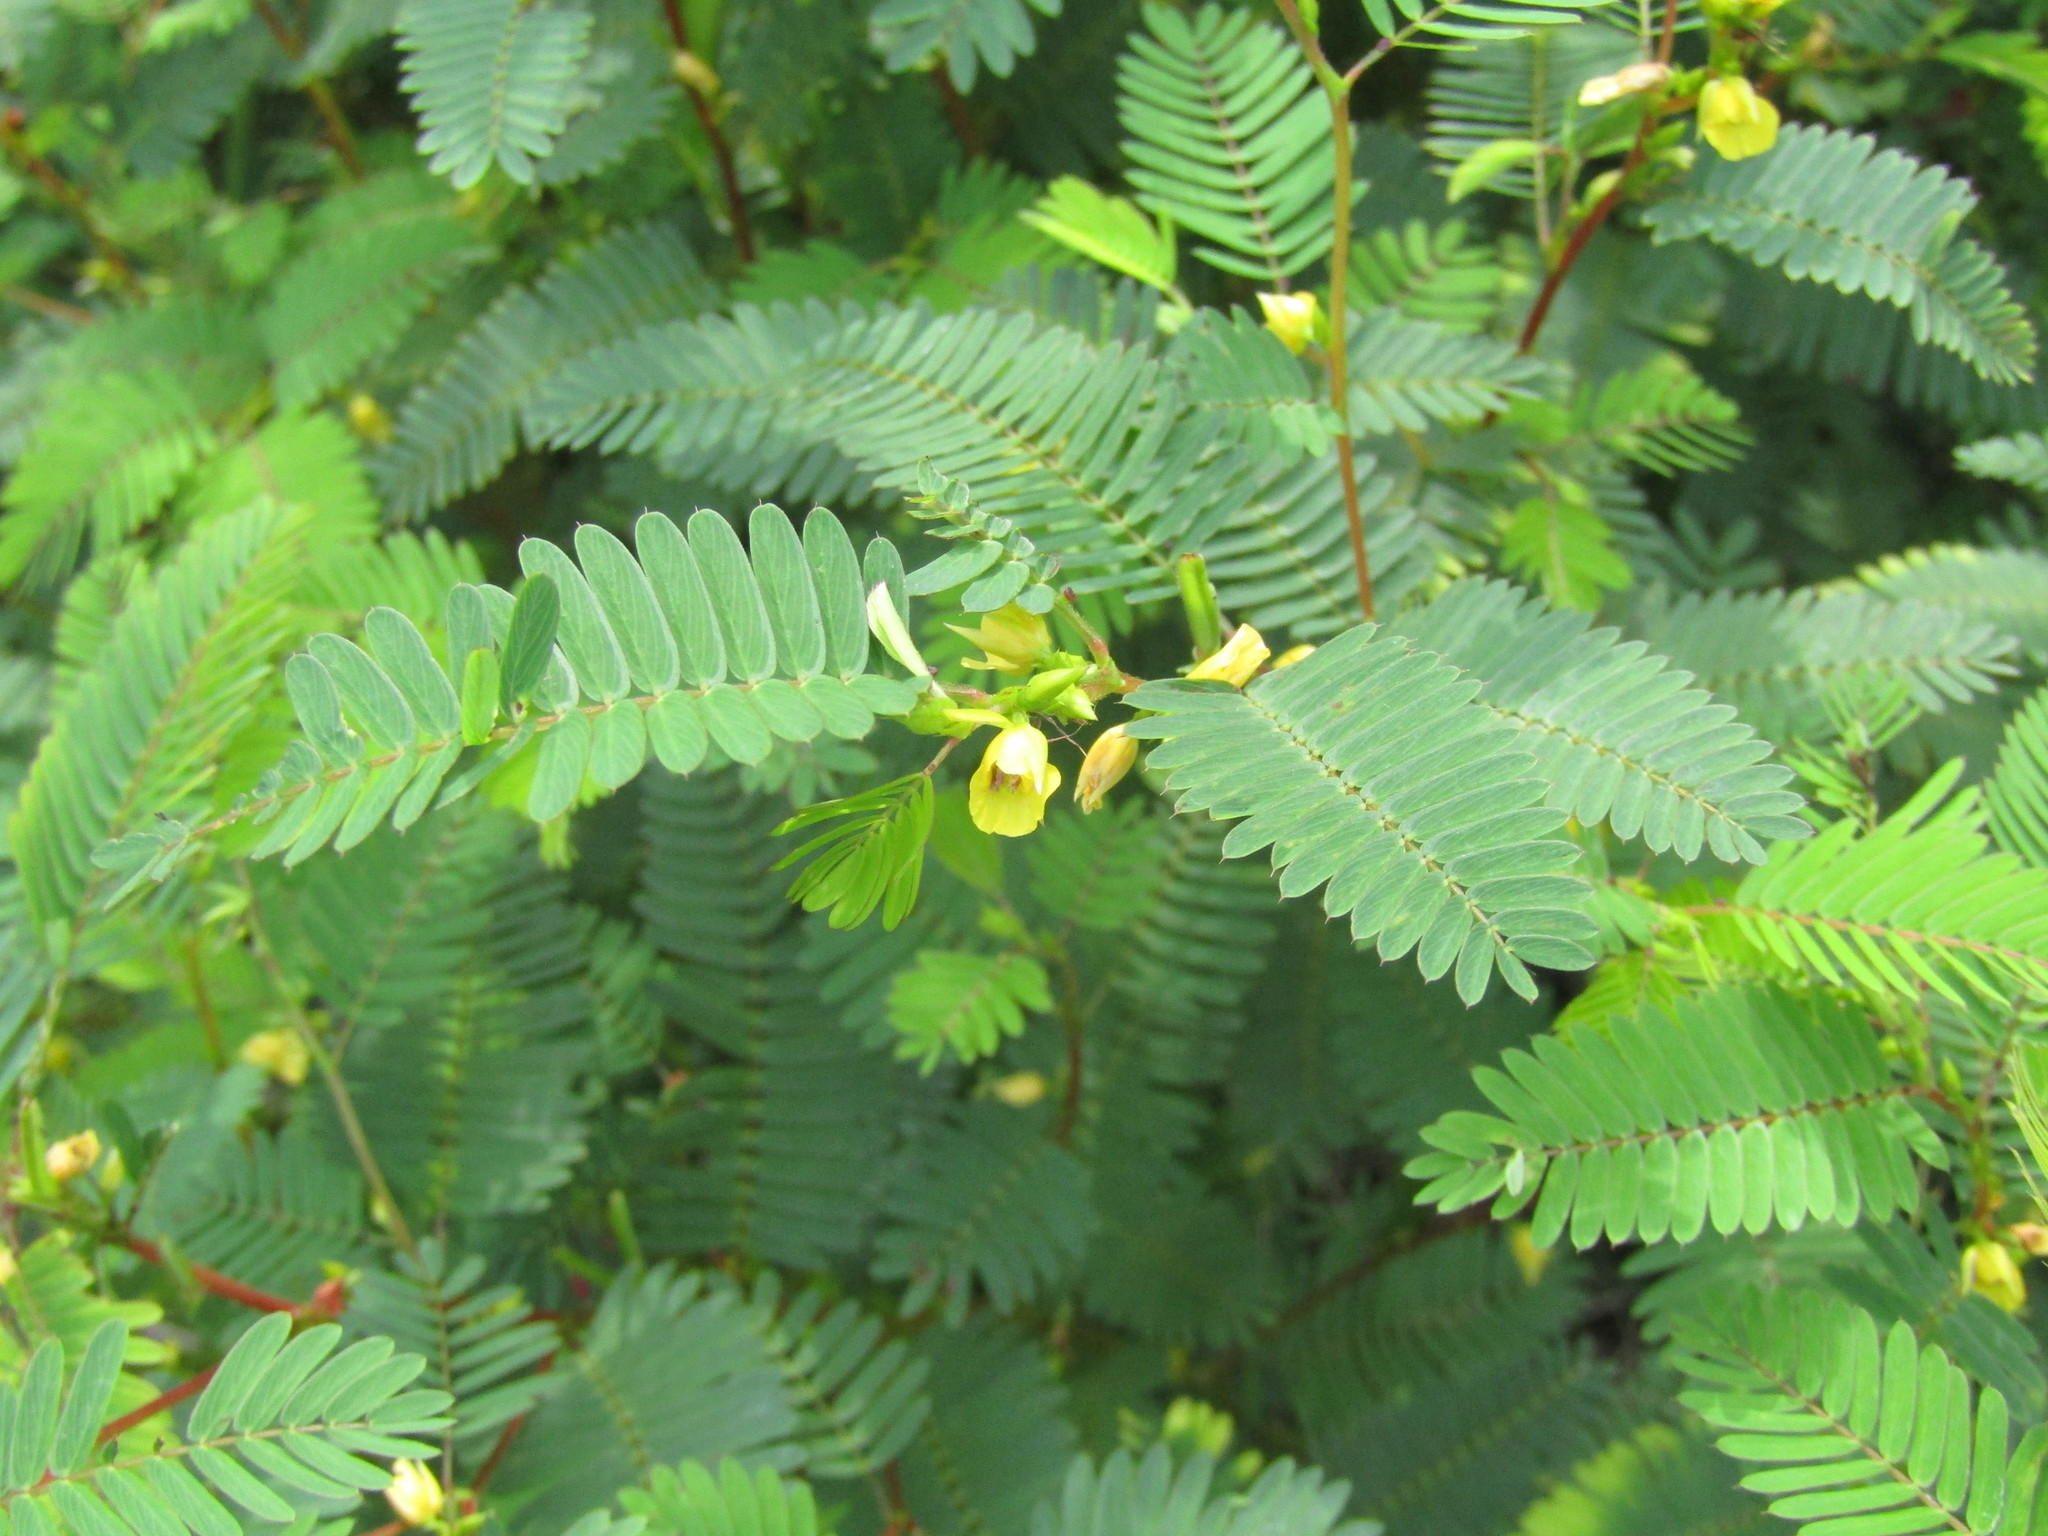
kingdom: Plantae
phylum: Tracheophyta
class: Magnoliopsida
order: Fabales
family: Fabaceae
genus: Chamaecrista
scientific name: Chamaecrista nictitans
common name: Sensitive cassia
